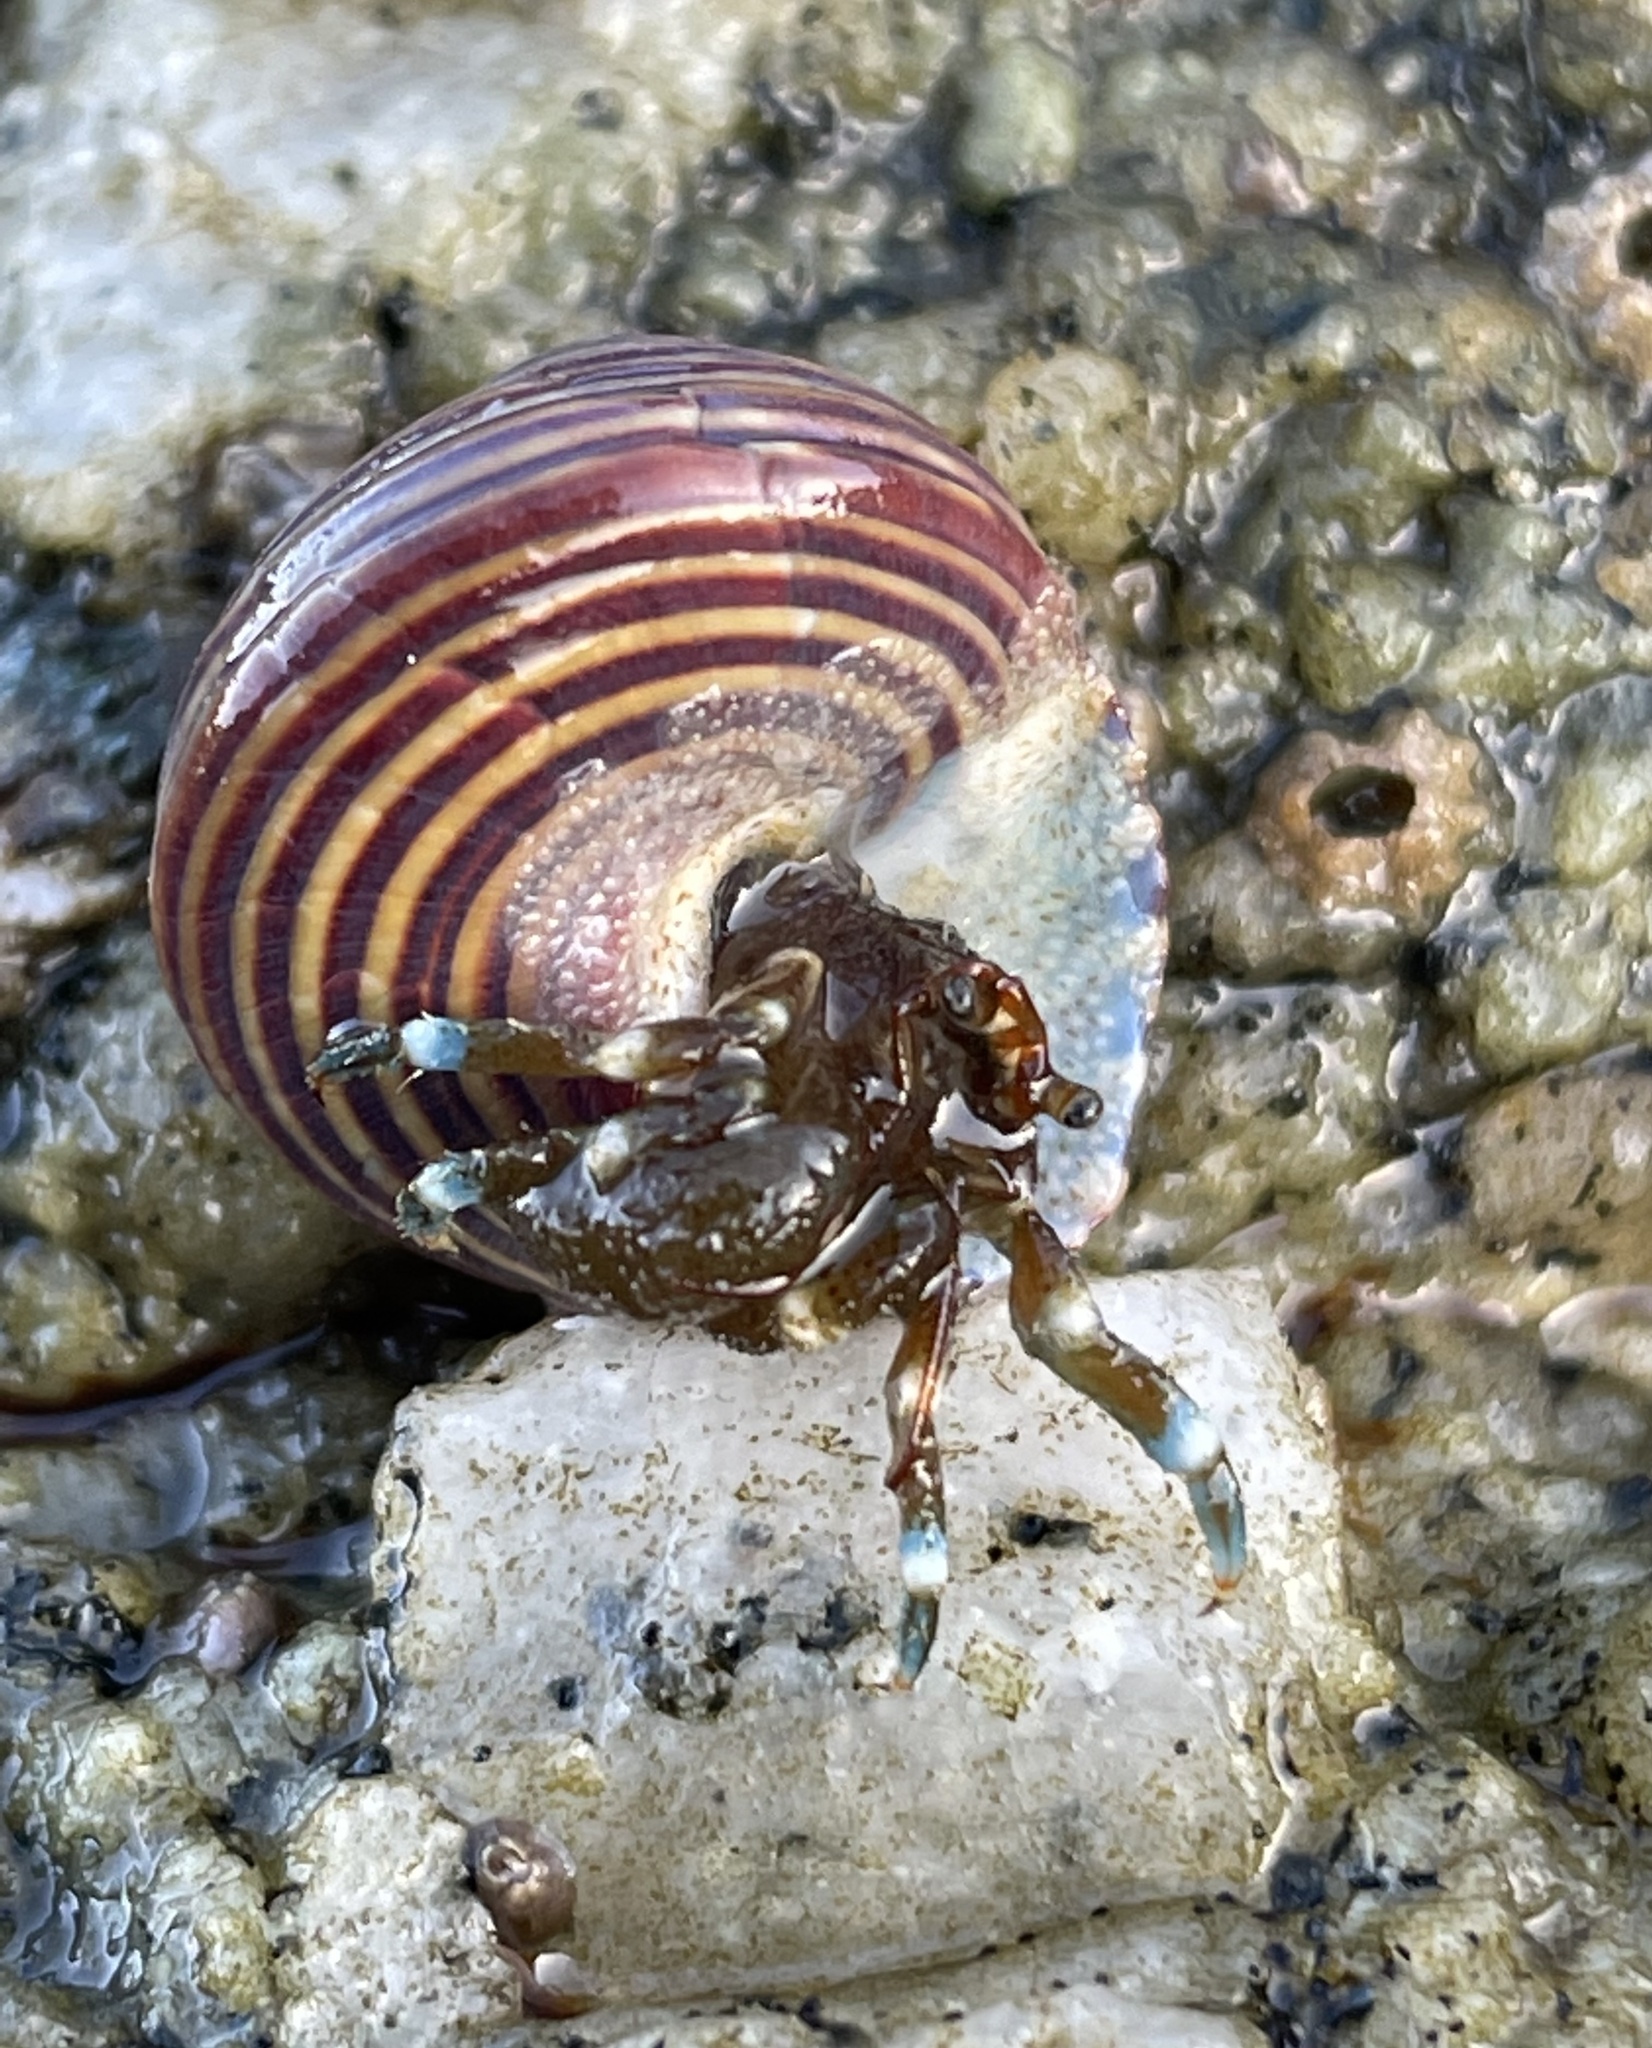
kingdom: Animalia
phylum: Arthropoda
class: Malacostraca
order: Decapoda
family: Paguridae
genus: Pagurus
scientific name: Pagurus samuelis
